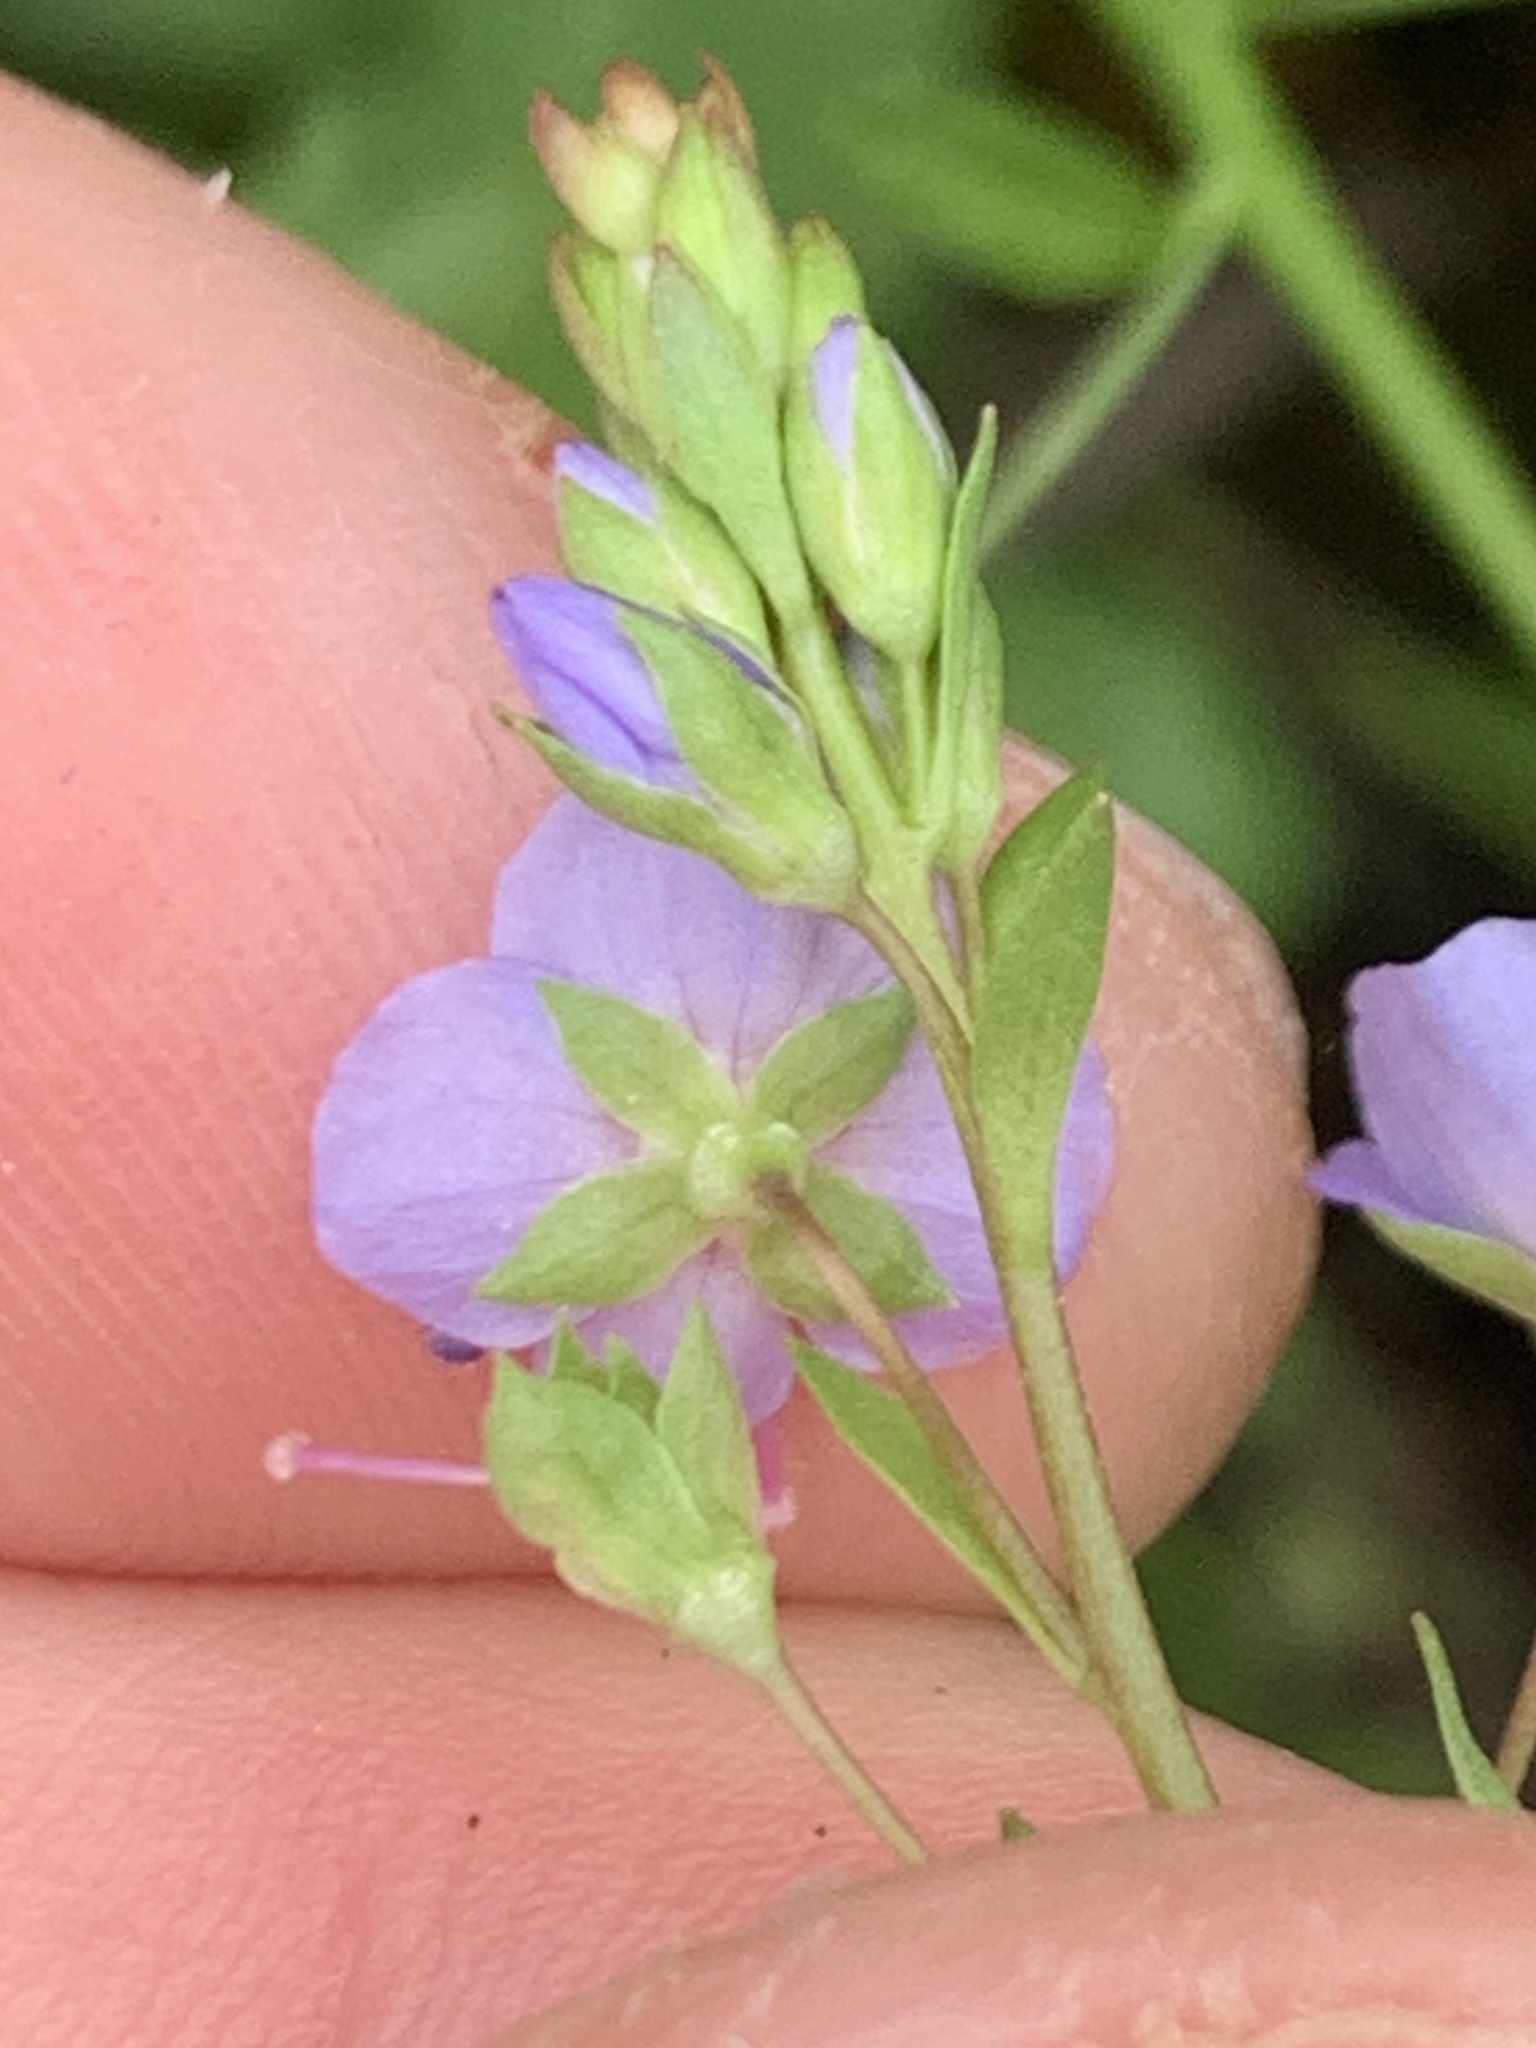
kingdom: Plantae
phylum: Tracheophyta
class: Magnoliopsida
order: Lamiales
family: Plantaginaceae
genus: Veronica
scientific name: Veronica americana
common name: American brooklime
